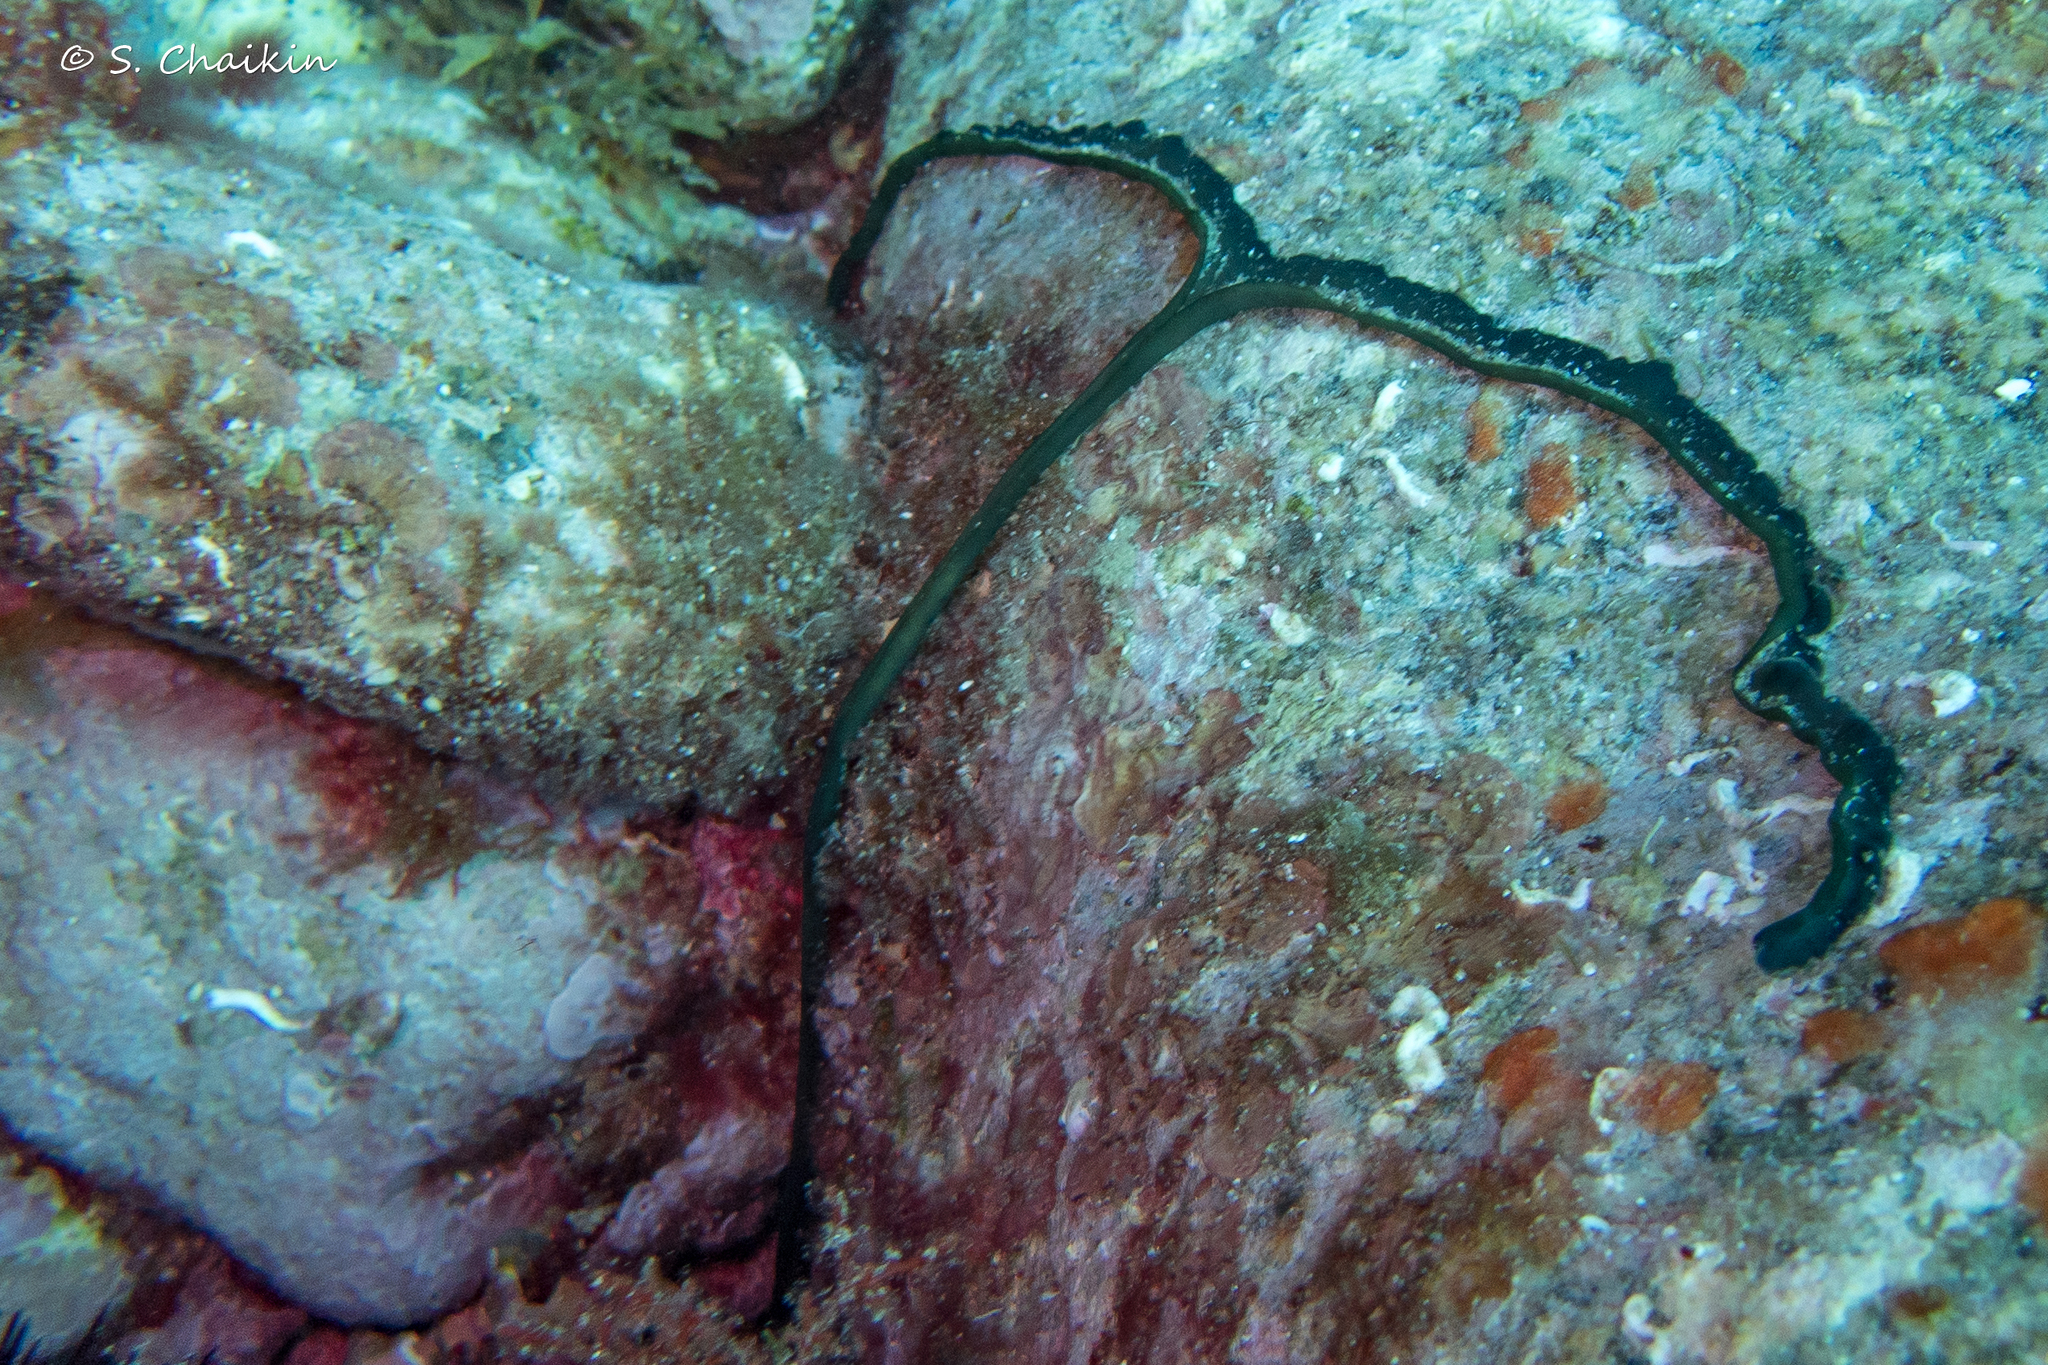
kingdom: Animalia
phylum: Annelida
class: Polychaeta
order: Echiuroidea
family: Bonelliidae
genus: Bonellia
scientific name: Bonellia viridis
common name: Green spoon worm
